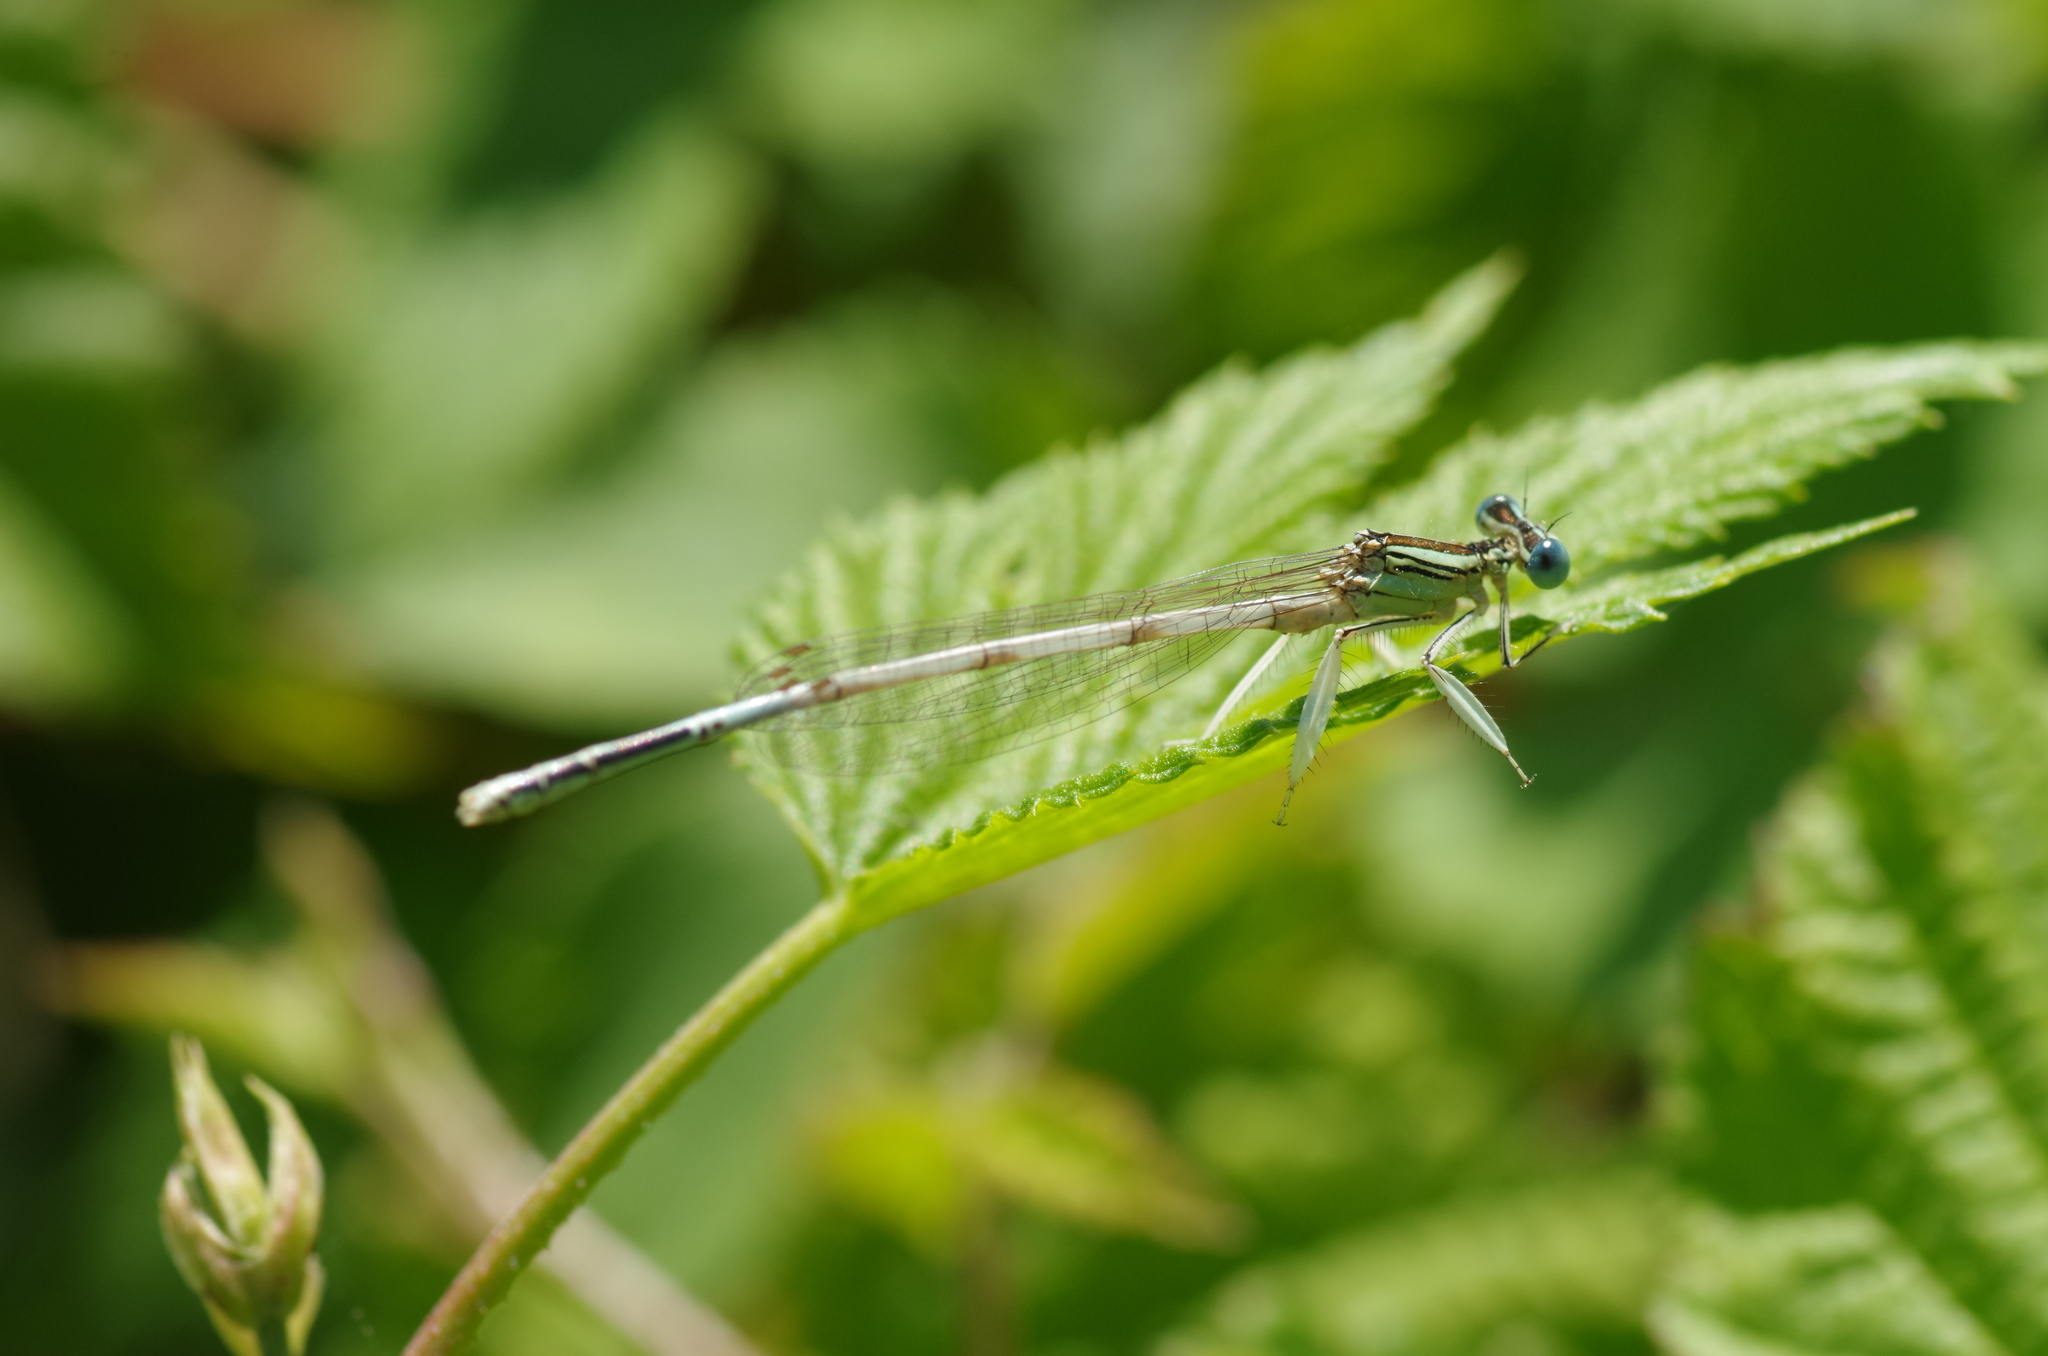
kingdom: Animalia
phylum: Arthropoda
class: Insecta
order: Odonata
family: Platycnemididae
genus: Platycnemis
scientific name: Platycnemis latipes
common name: White featherleg
